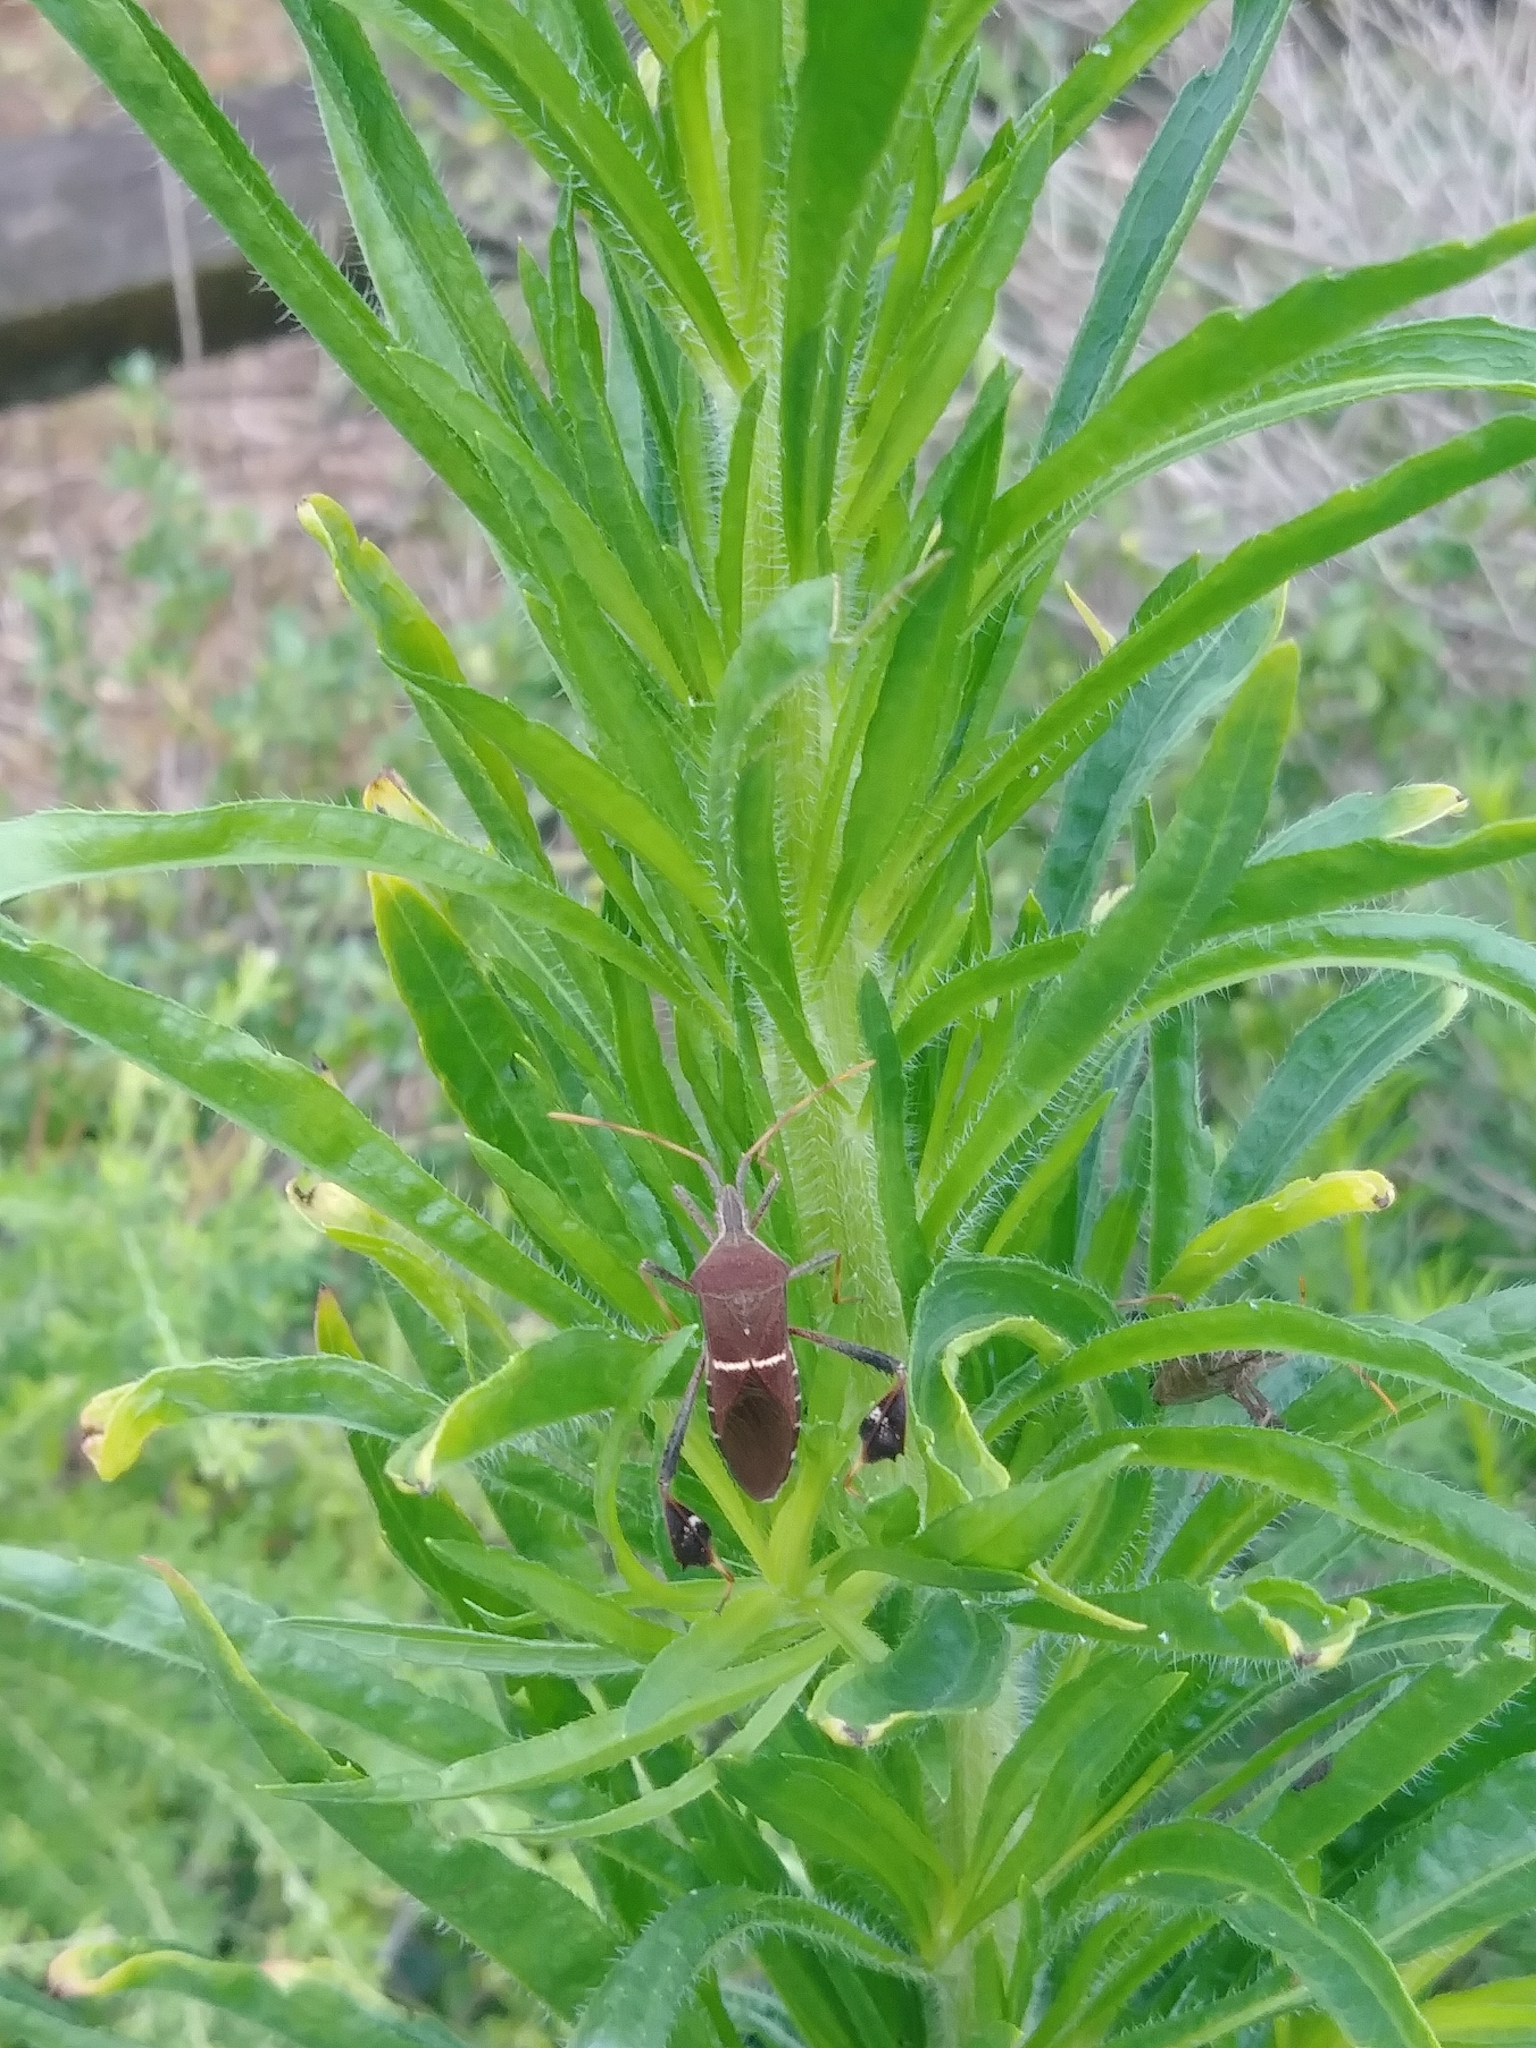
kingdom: Animalia
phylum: Arthropoda
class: Insecta
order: Hemiptera
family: Coreidae
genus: Leptoglossus
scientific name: Leptoglossus phyllopus
